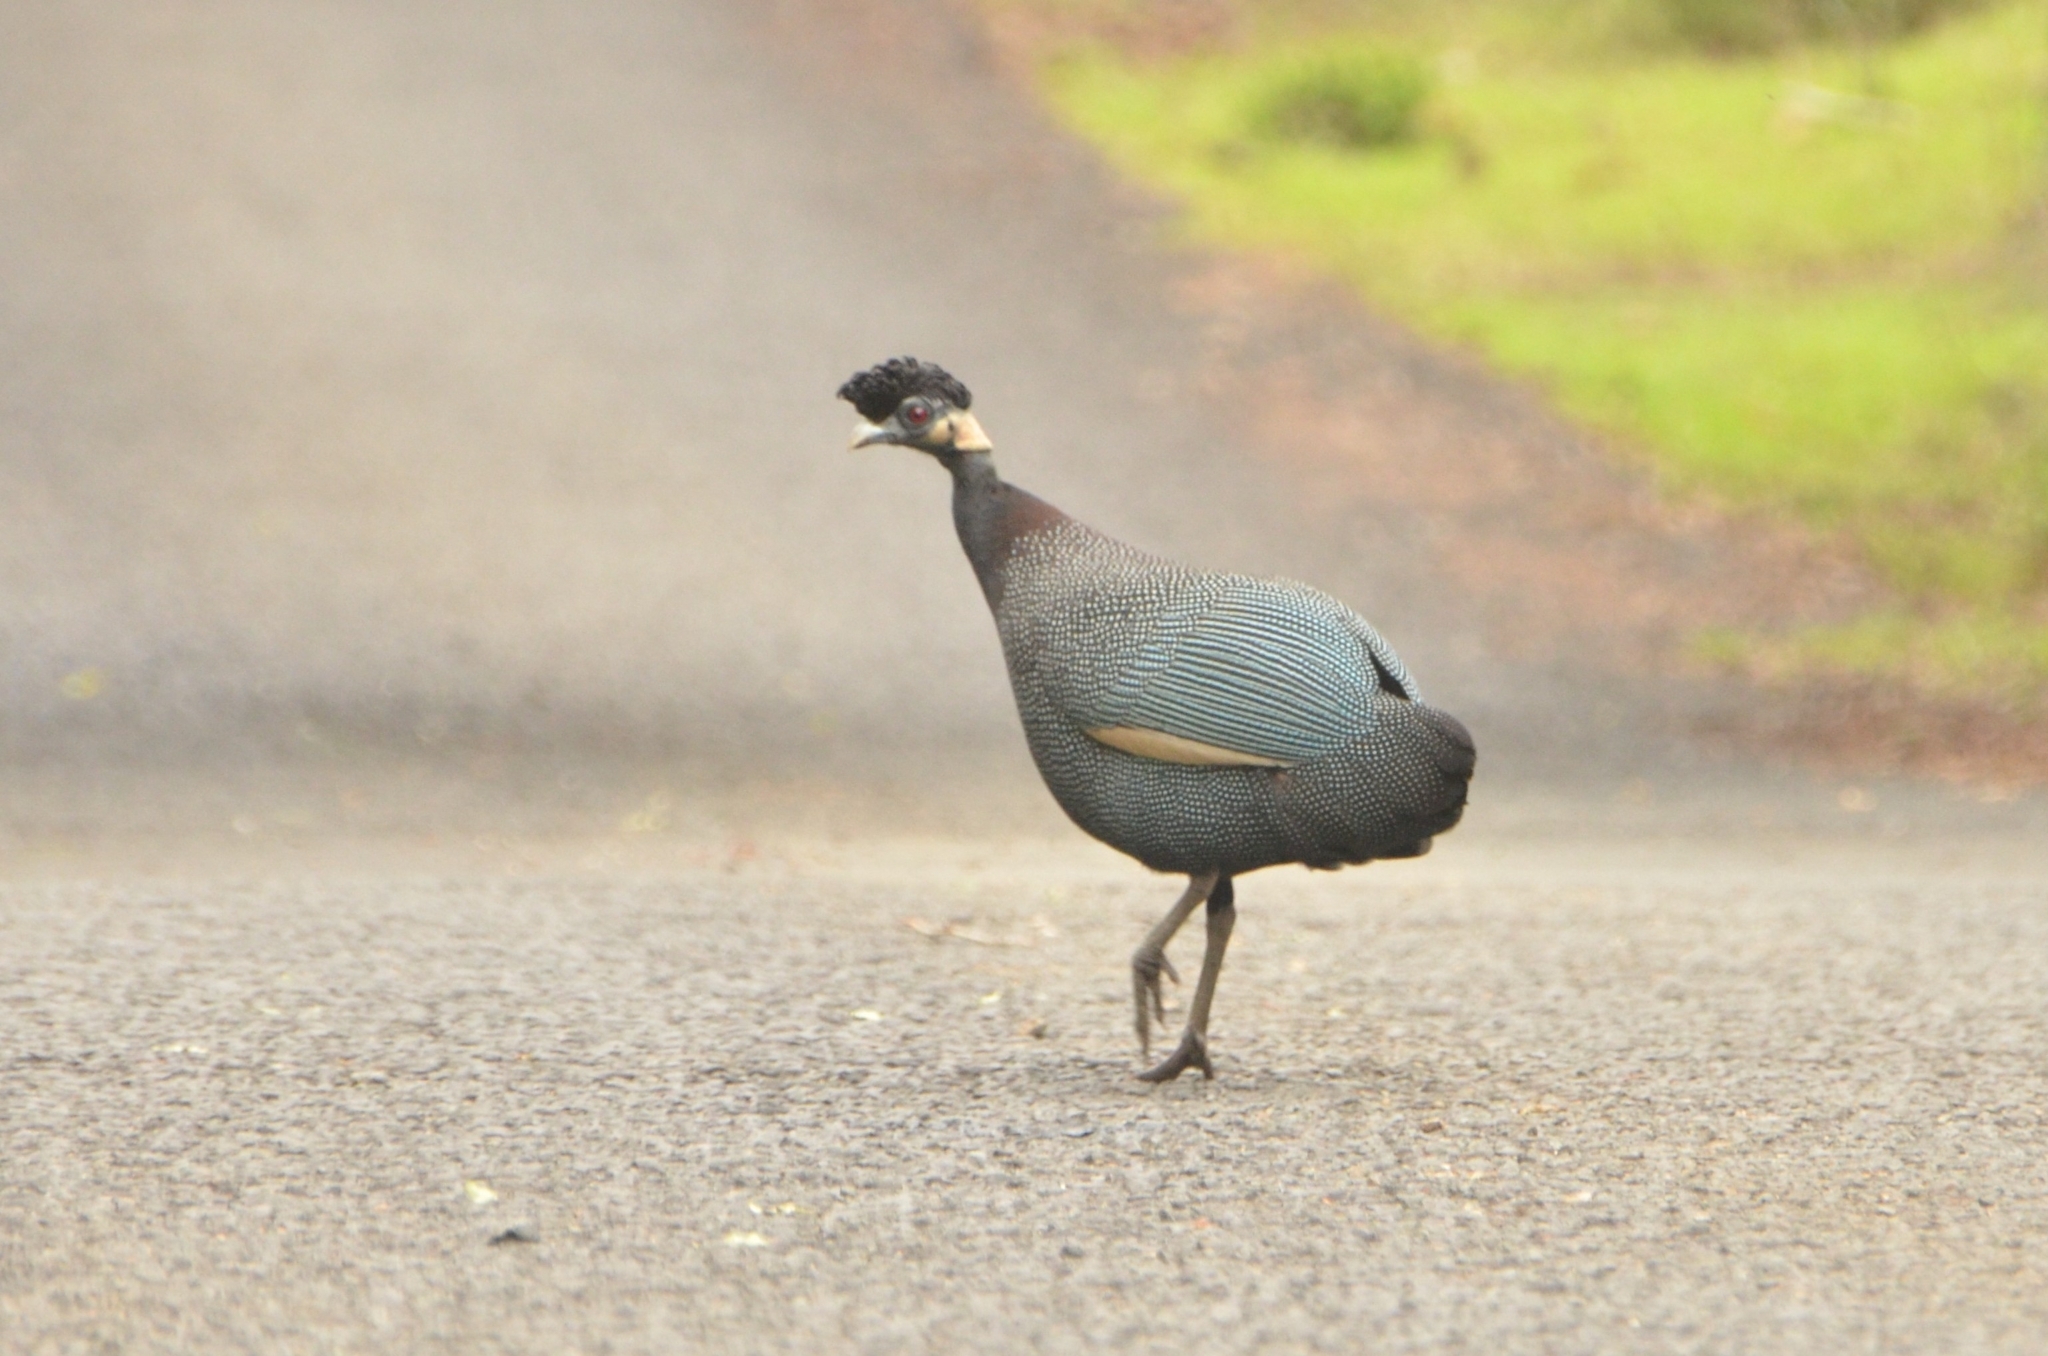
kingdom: Animalia
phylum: Chordata
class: Aves
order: Galliformes
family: Numididae
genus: Guttera
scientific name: Guttera pucherani
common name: Crested guineafowl
